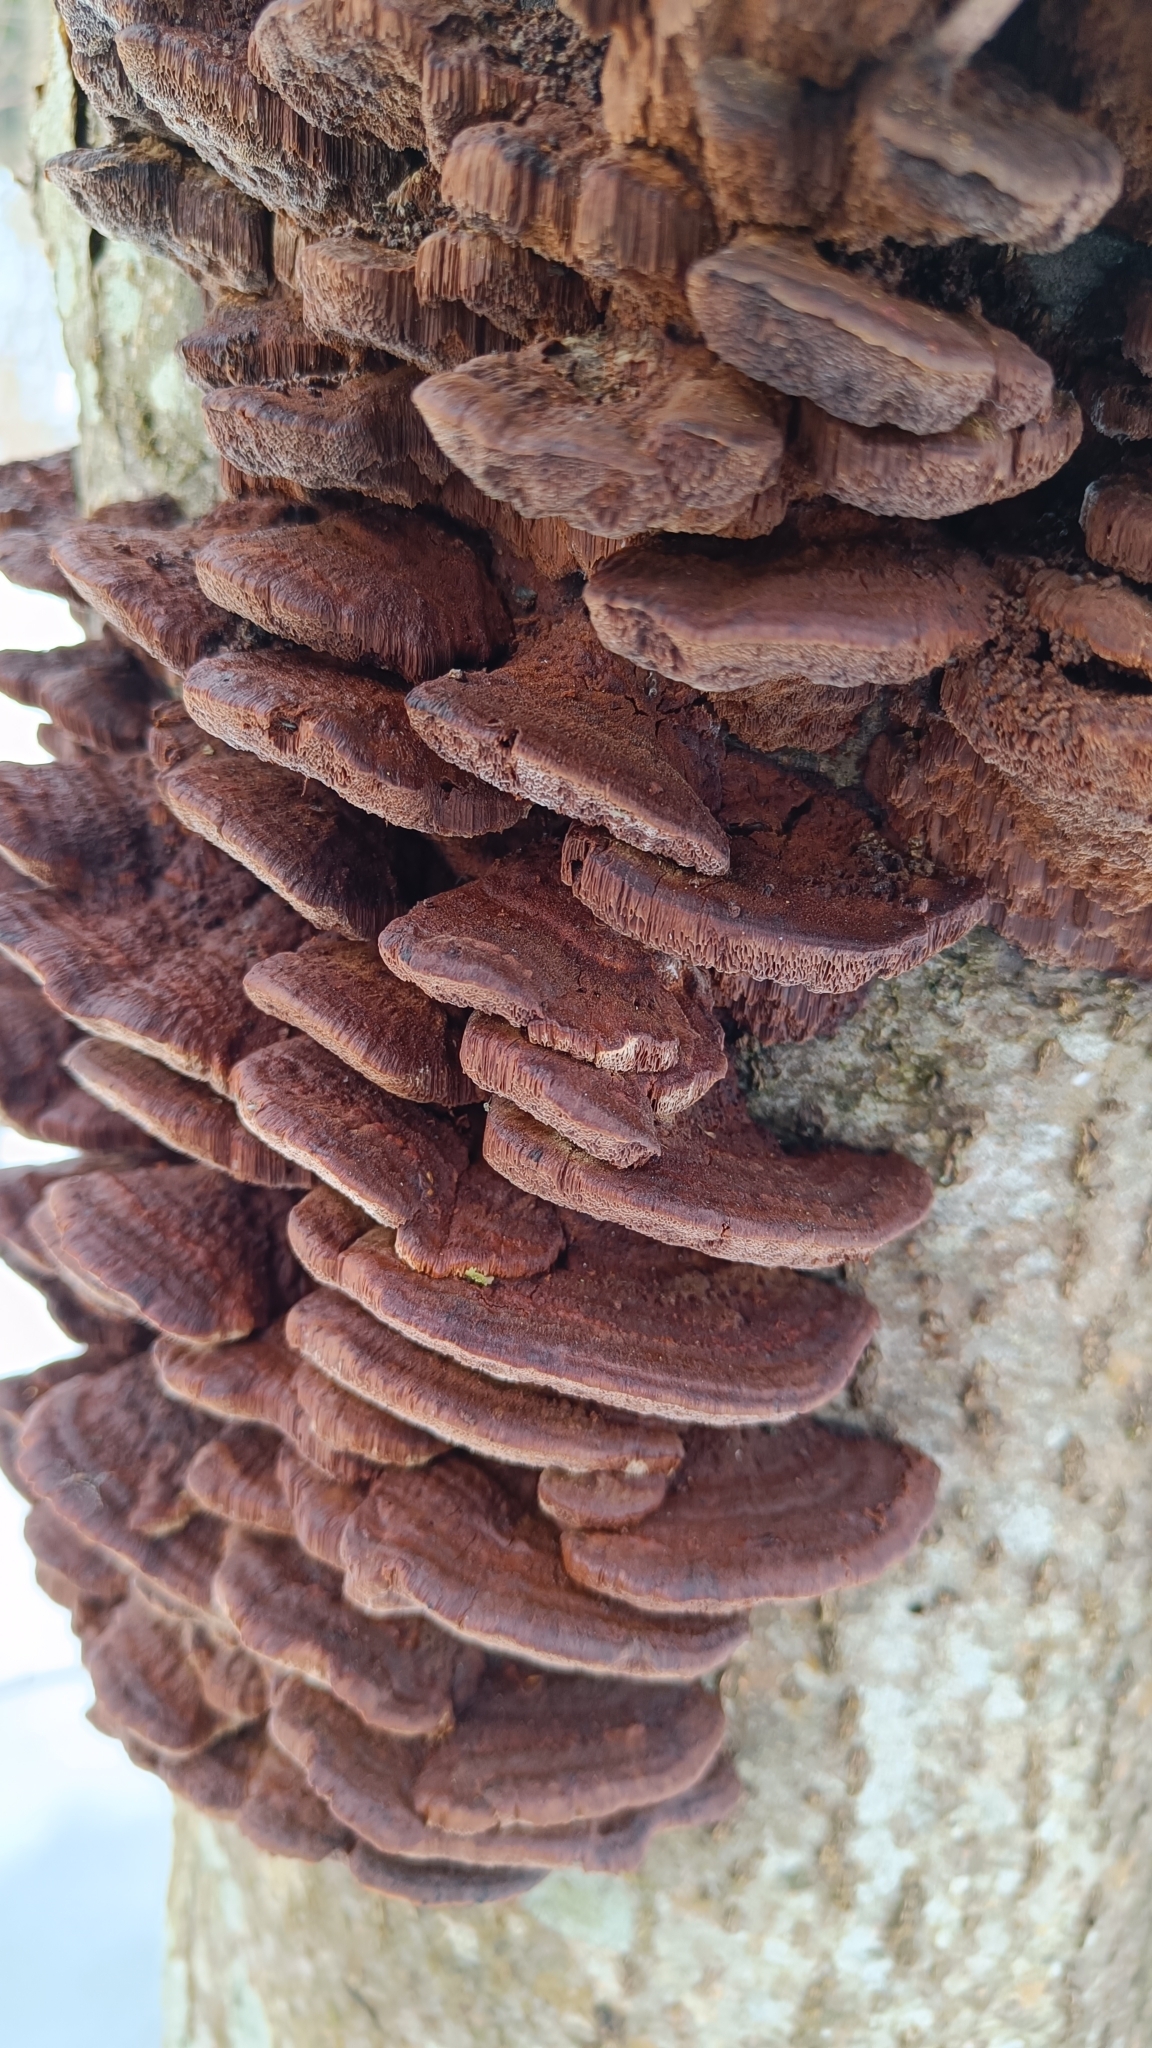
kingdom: Fungi
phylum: Basidiomycota
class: Agaricomycetes
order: Hymenochaetales
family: Hymenochaetaceae
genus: Xanthoporia
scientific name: Xanthoporia radiata
